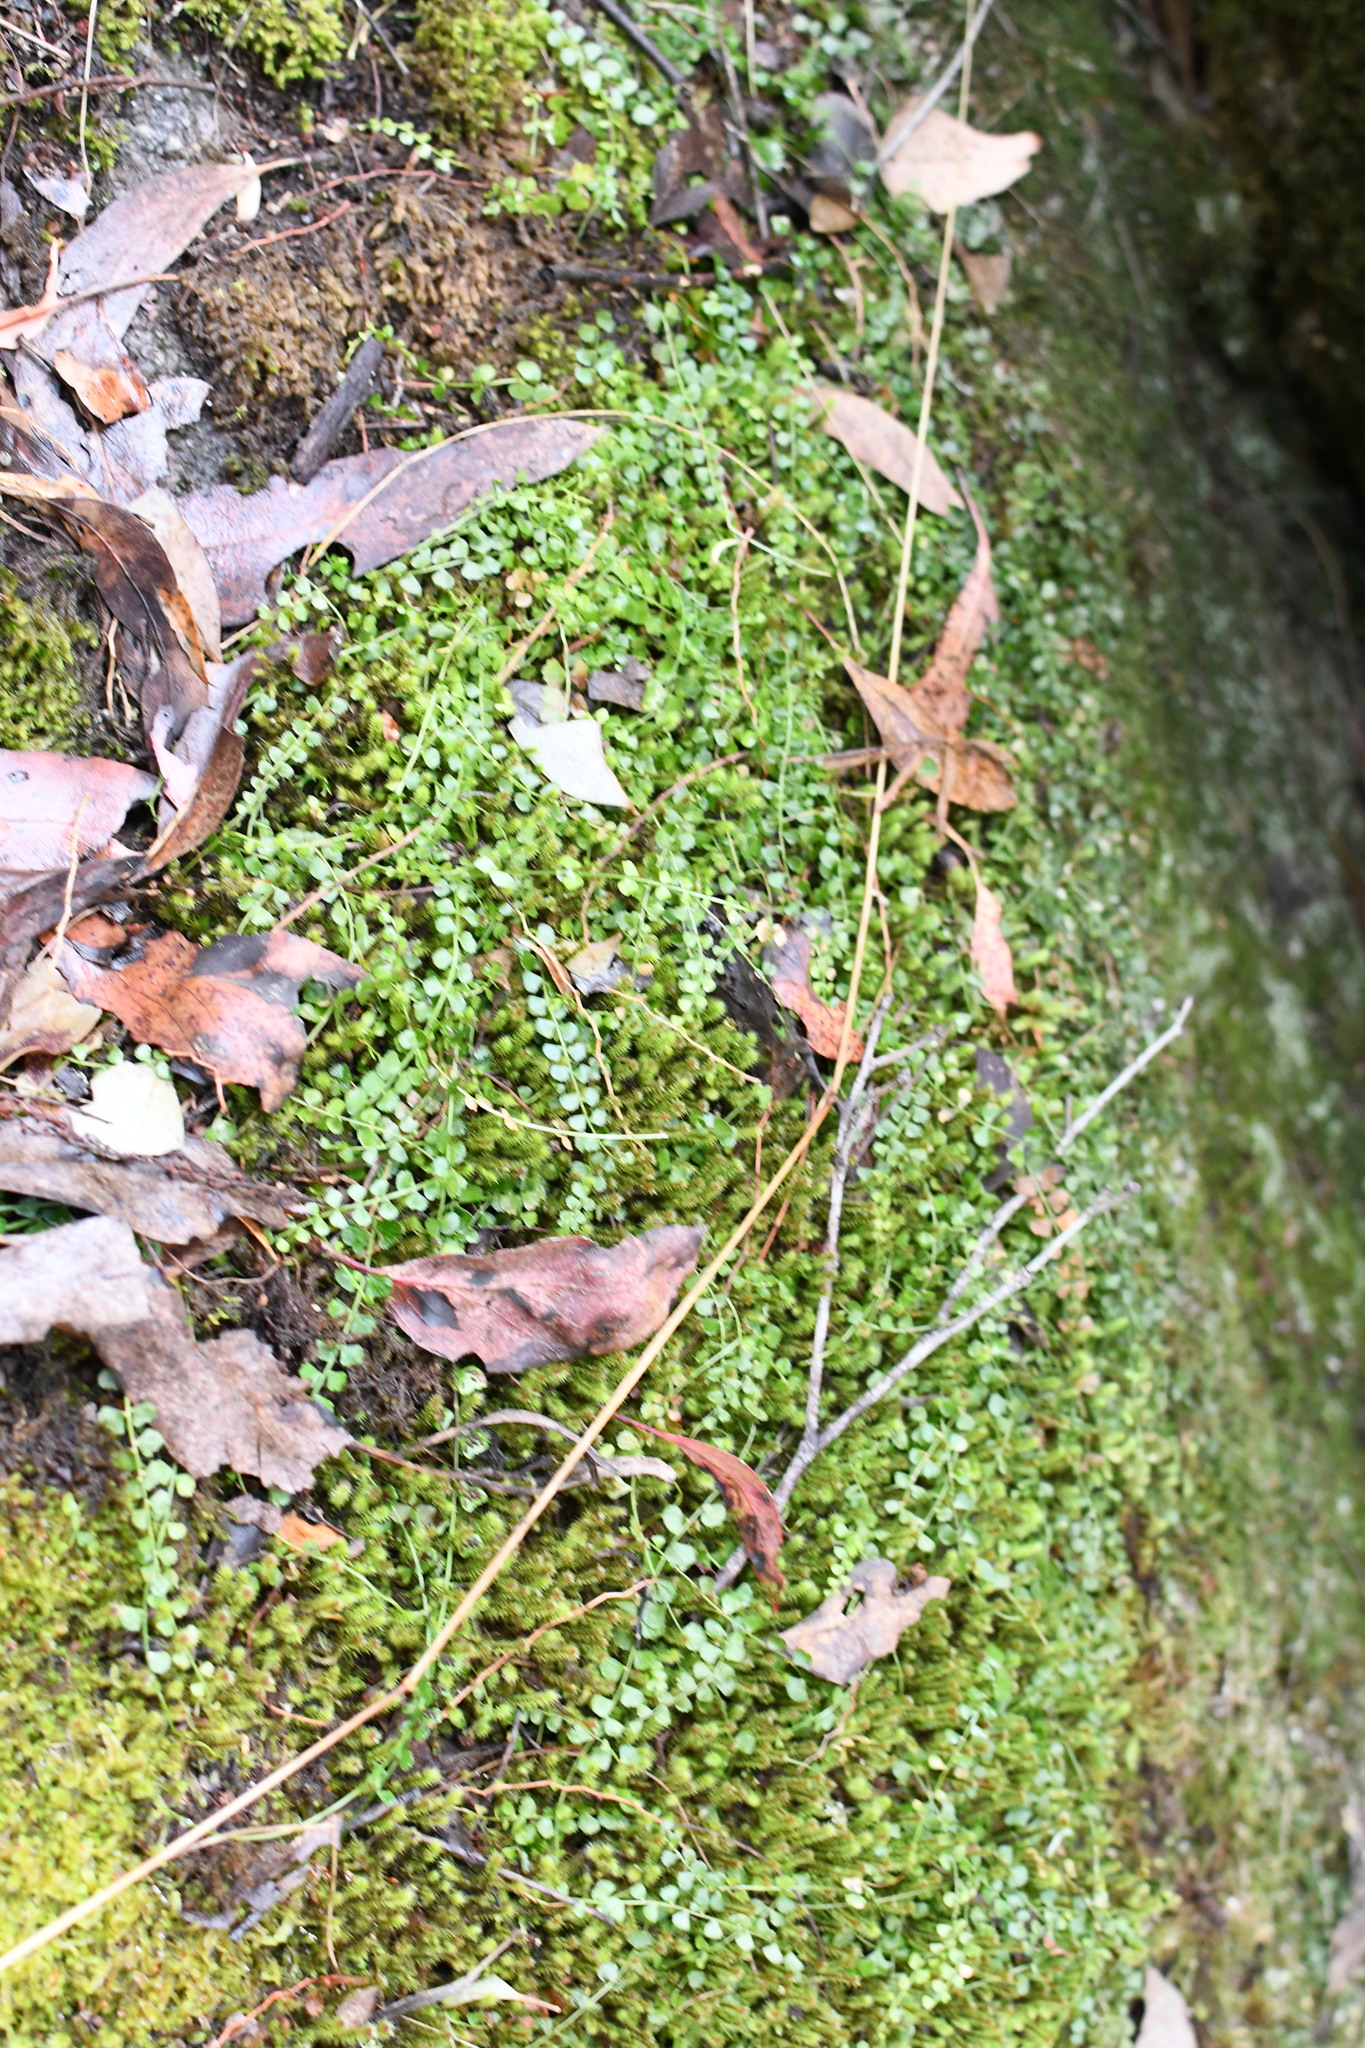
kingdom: Plantae
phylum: Tracheophyta
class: Polypodiopsida
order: Polypodiales
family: Aspleniaceae
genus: Asplenium
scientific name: Asplenium flabellifolium
